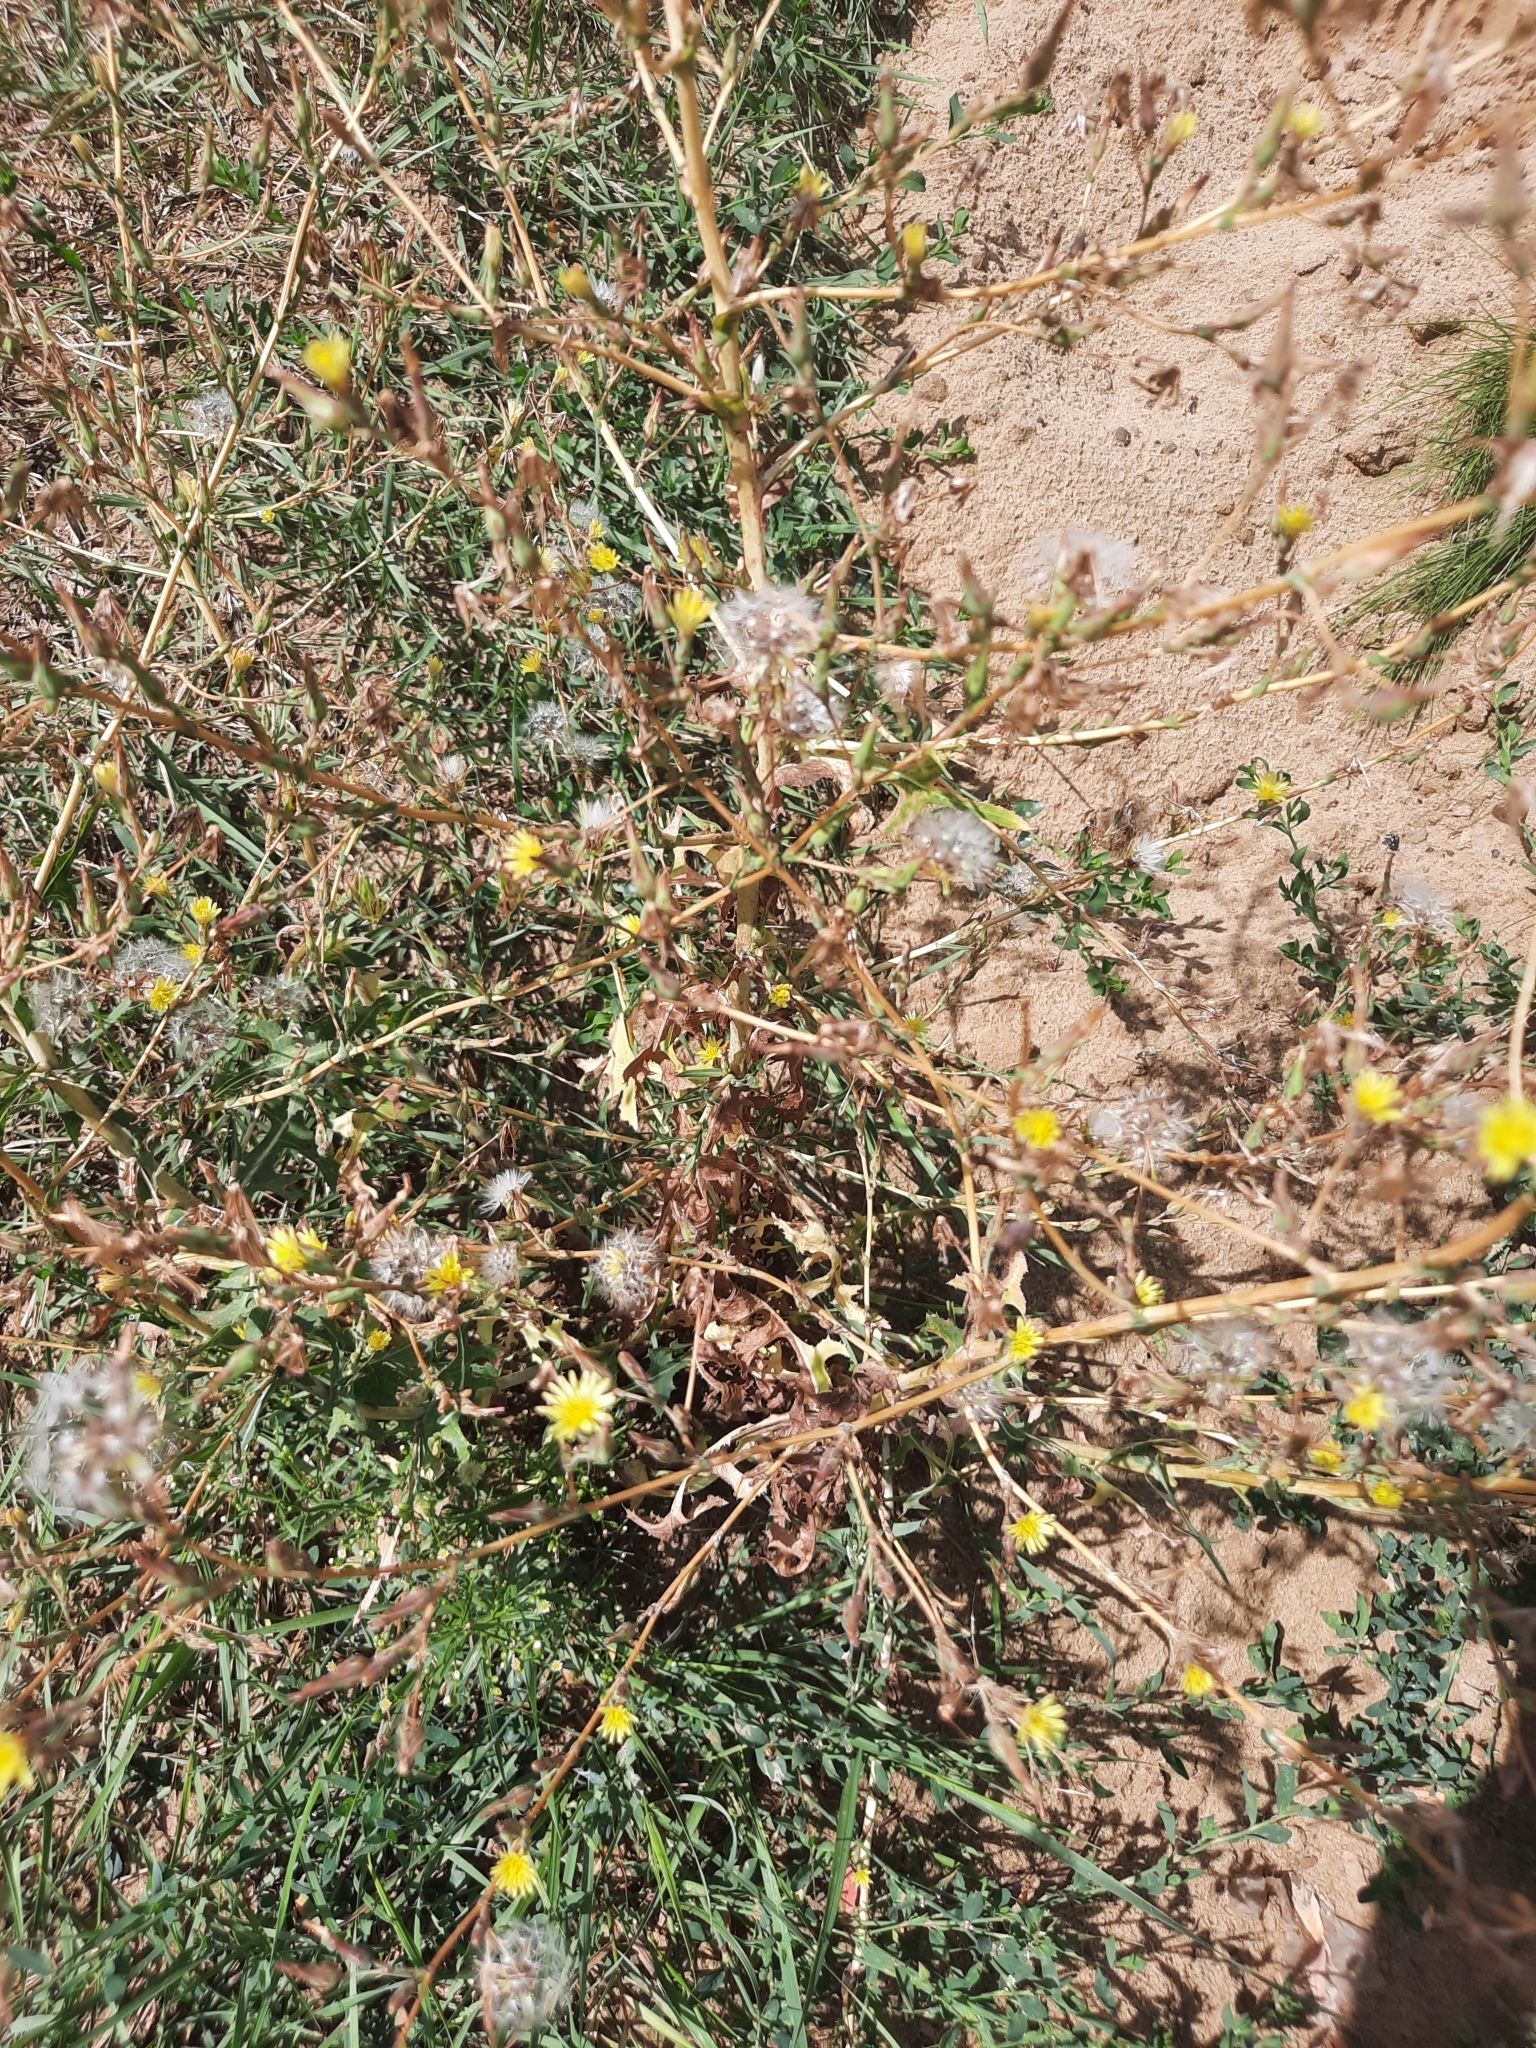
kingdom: Plantae
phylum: Tracheophyta
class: Magnoliopsida
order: Asterales
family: Asteraceae
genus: Lactuca
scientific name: Lactuca serriola
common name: Prickly lettuce
